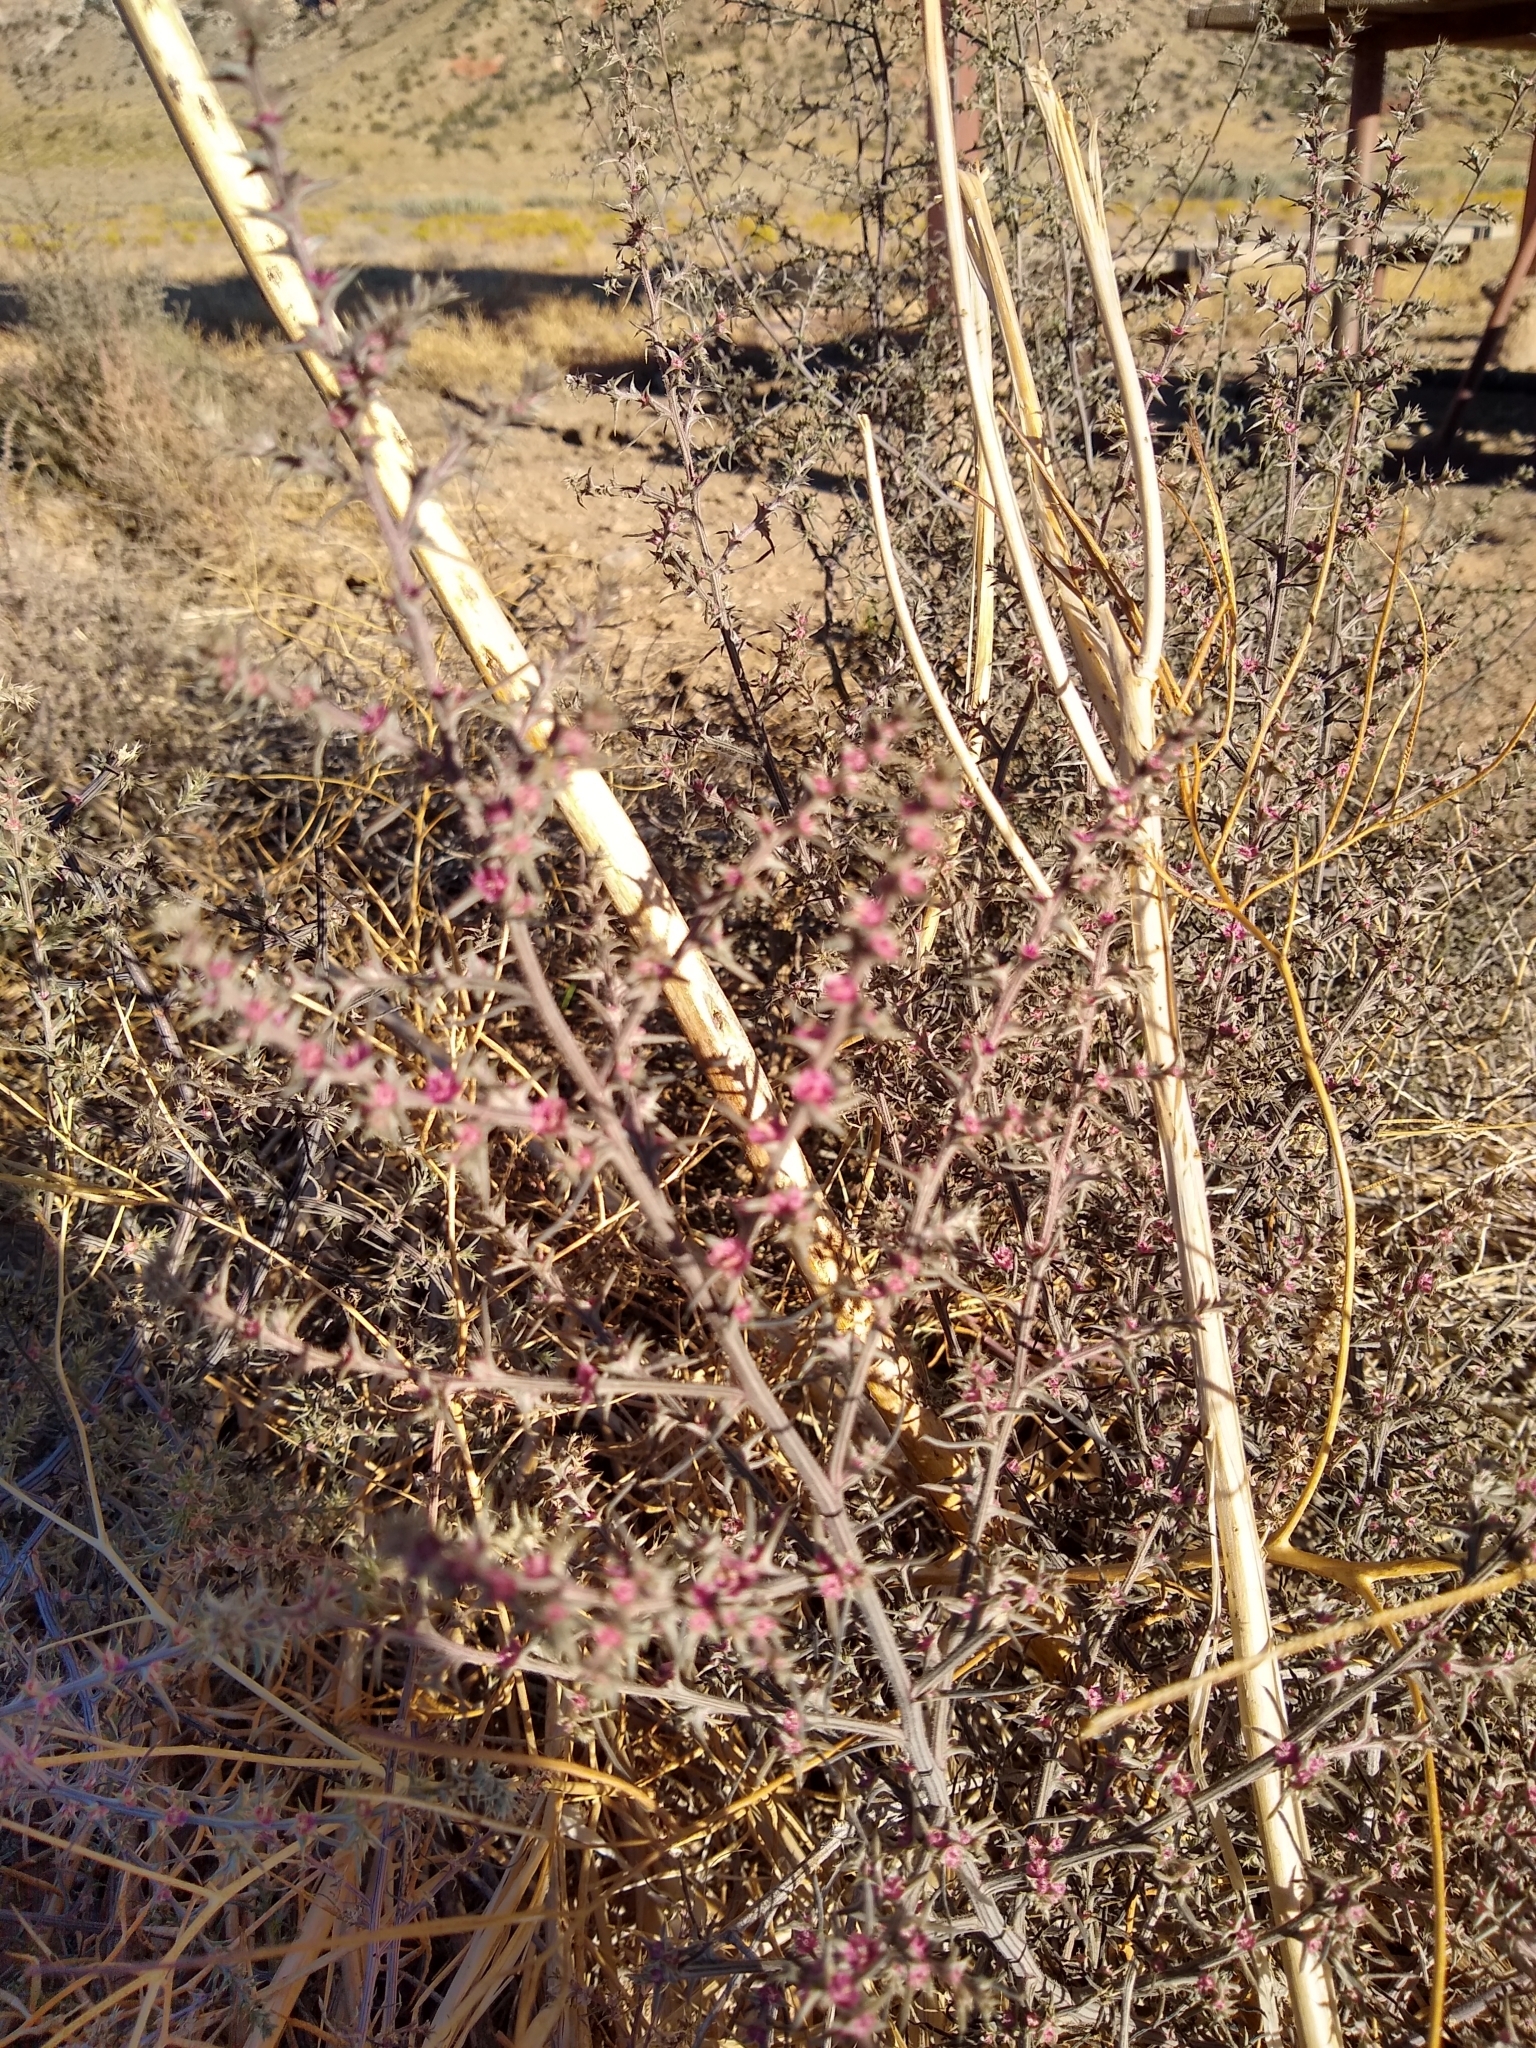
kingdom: Plantae
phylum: Tracheophyta
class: Magnoliopsida
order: Caryophyllales
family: Amaranthaceae
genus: Salsola
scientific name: Salsola tragus
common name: Prickly russian thistle
